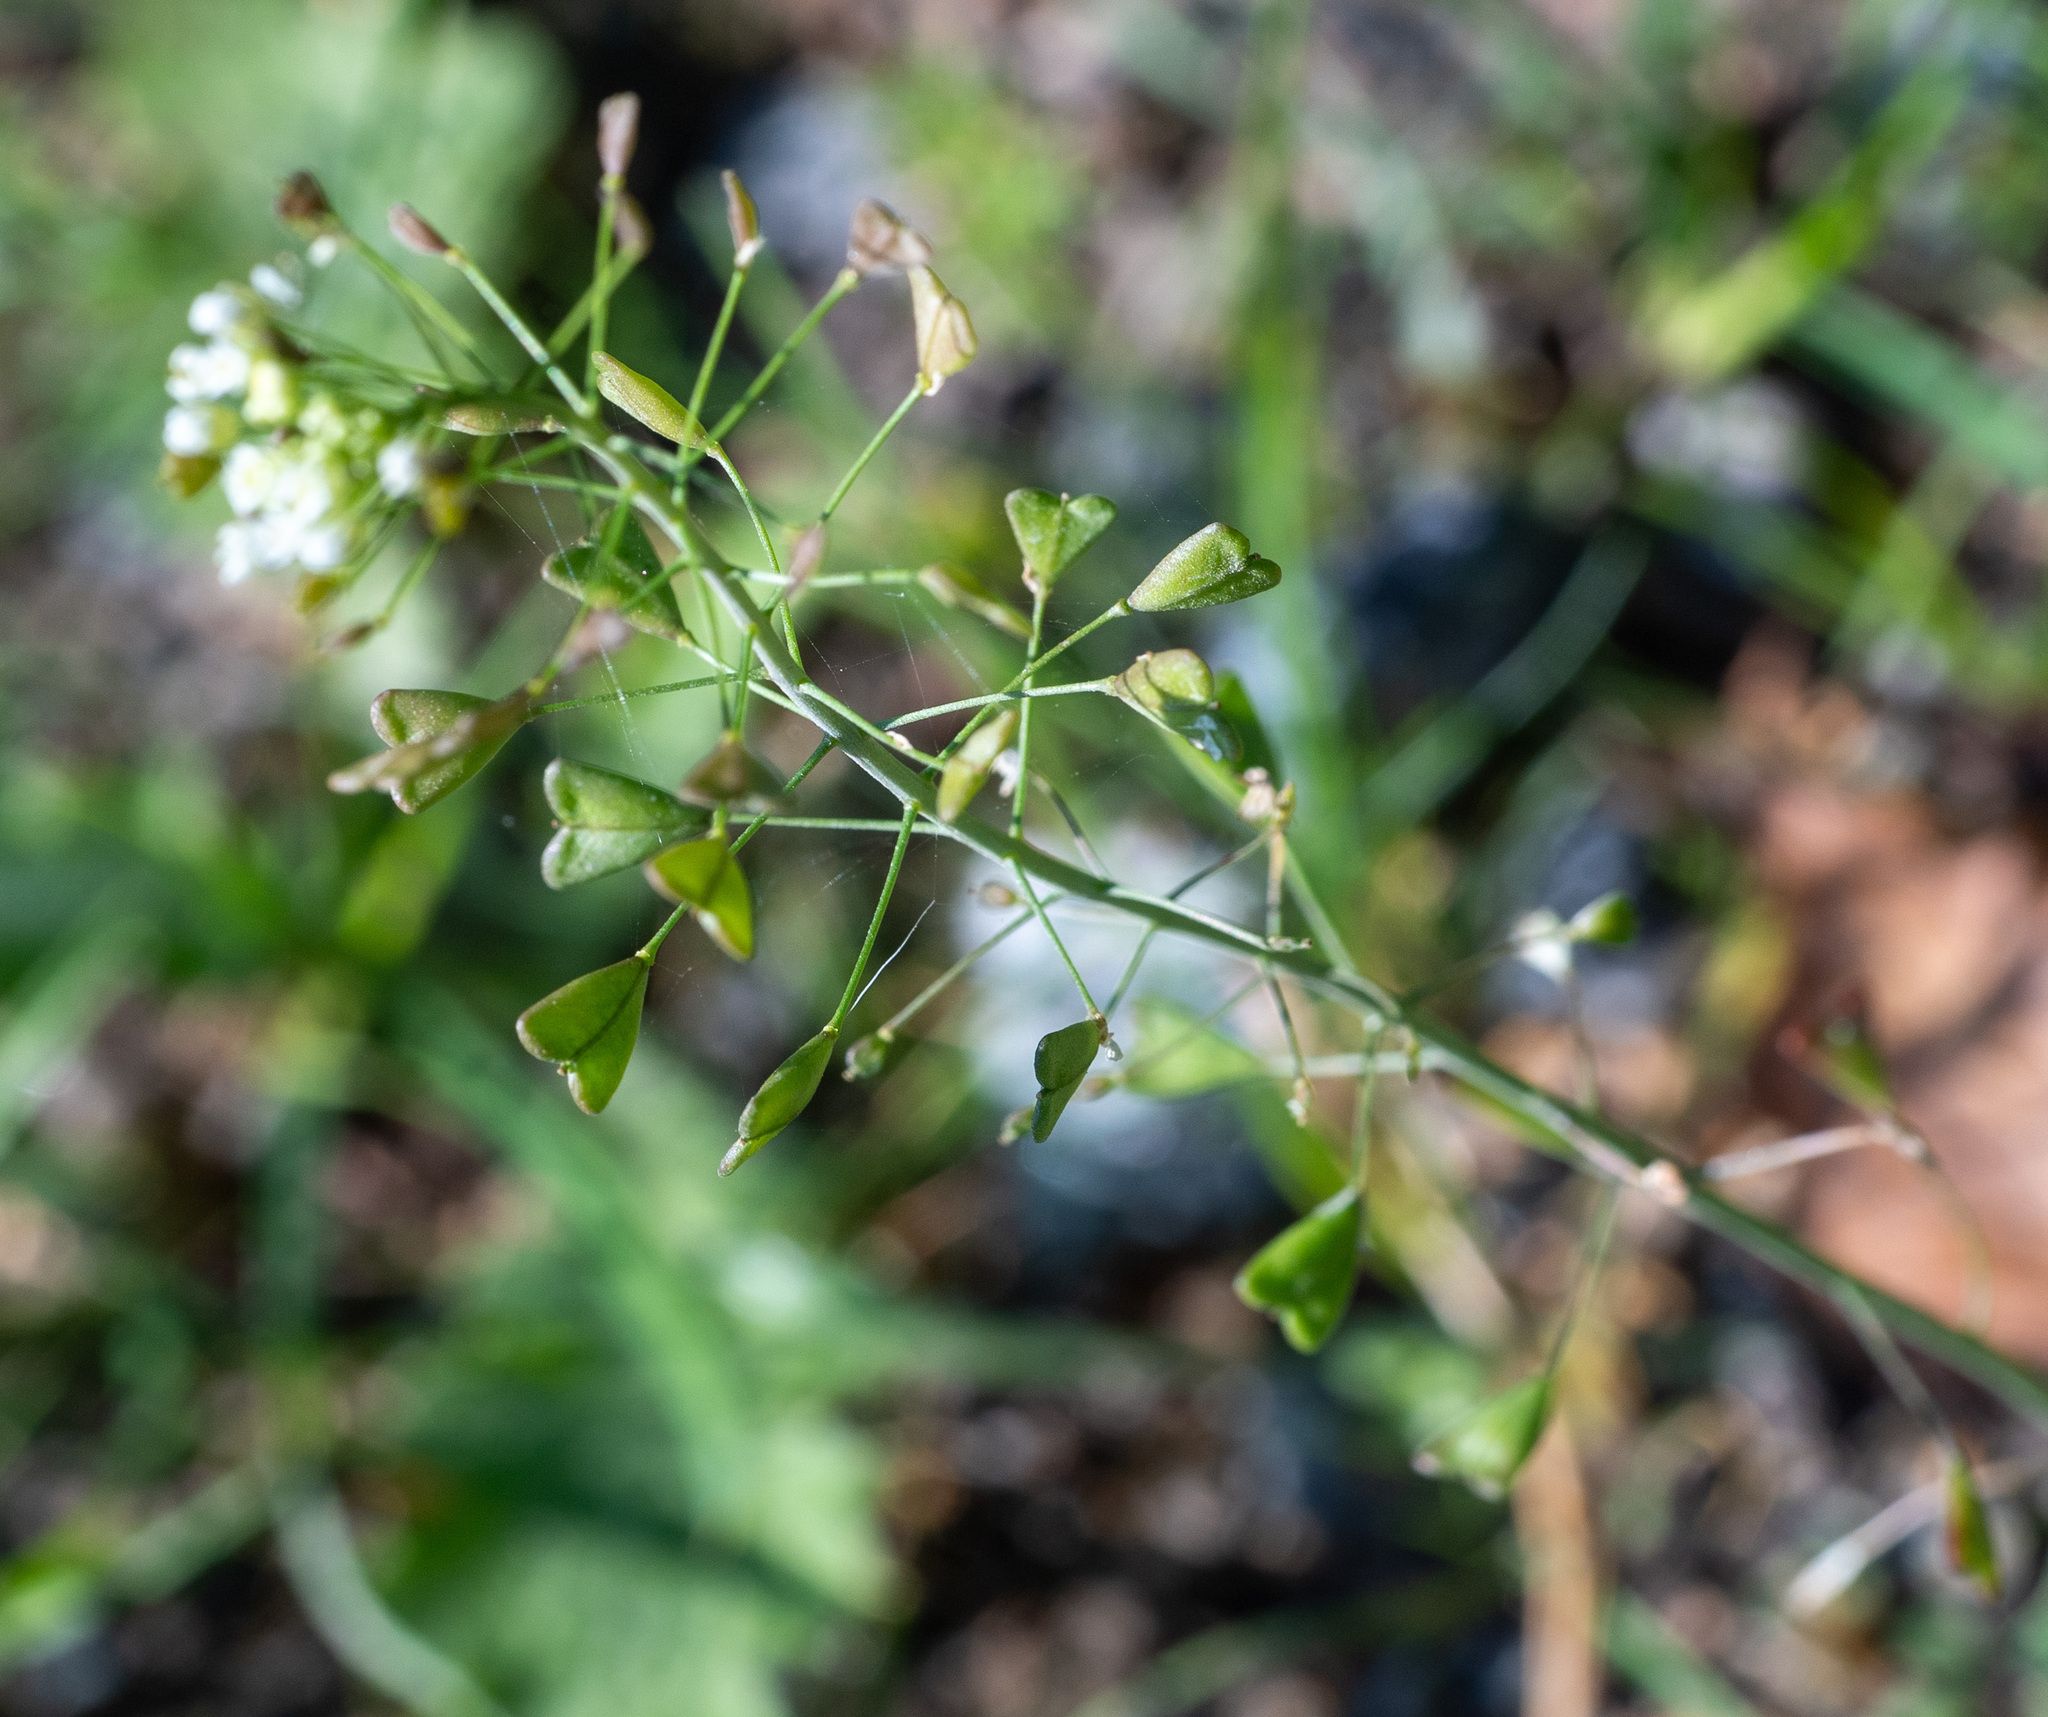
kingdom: Plantae
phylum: Tracheophyta
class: Magnoliopsida
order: Brassicales
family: Brassicaceae
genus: Capsella
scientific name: Capsella bursa-pastoris
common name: Shepherd's purse
